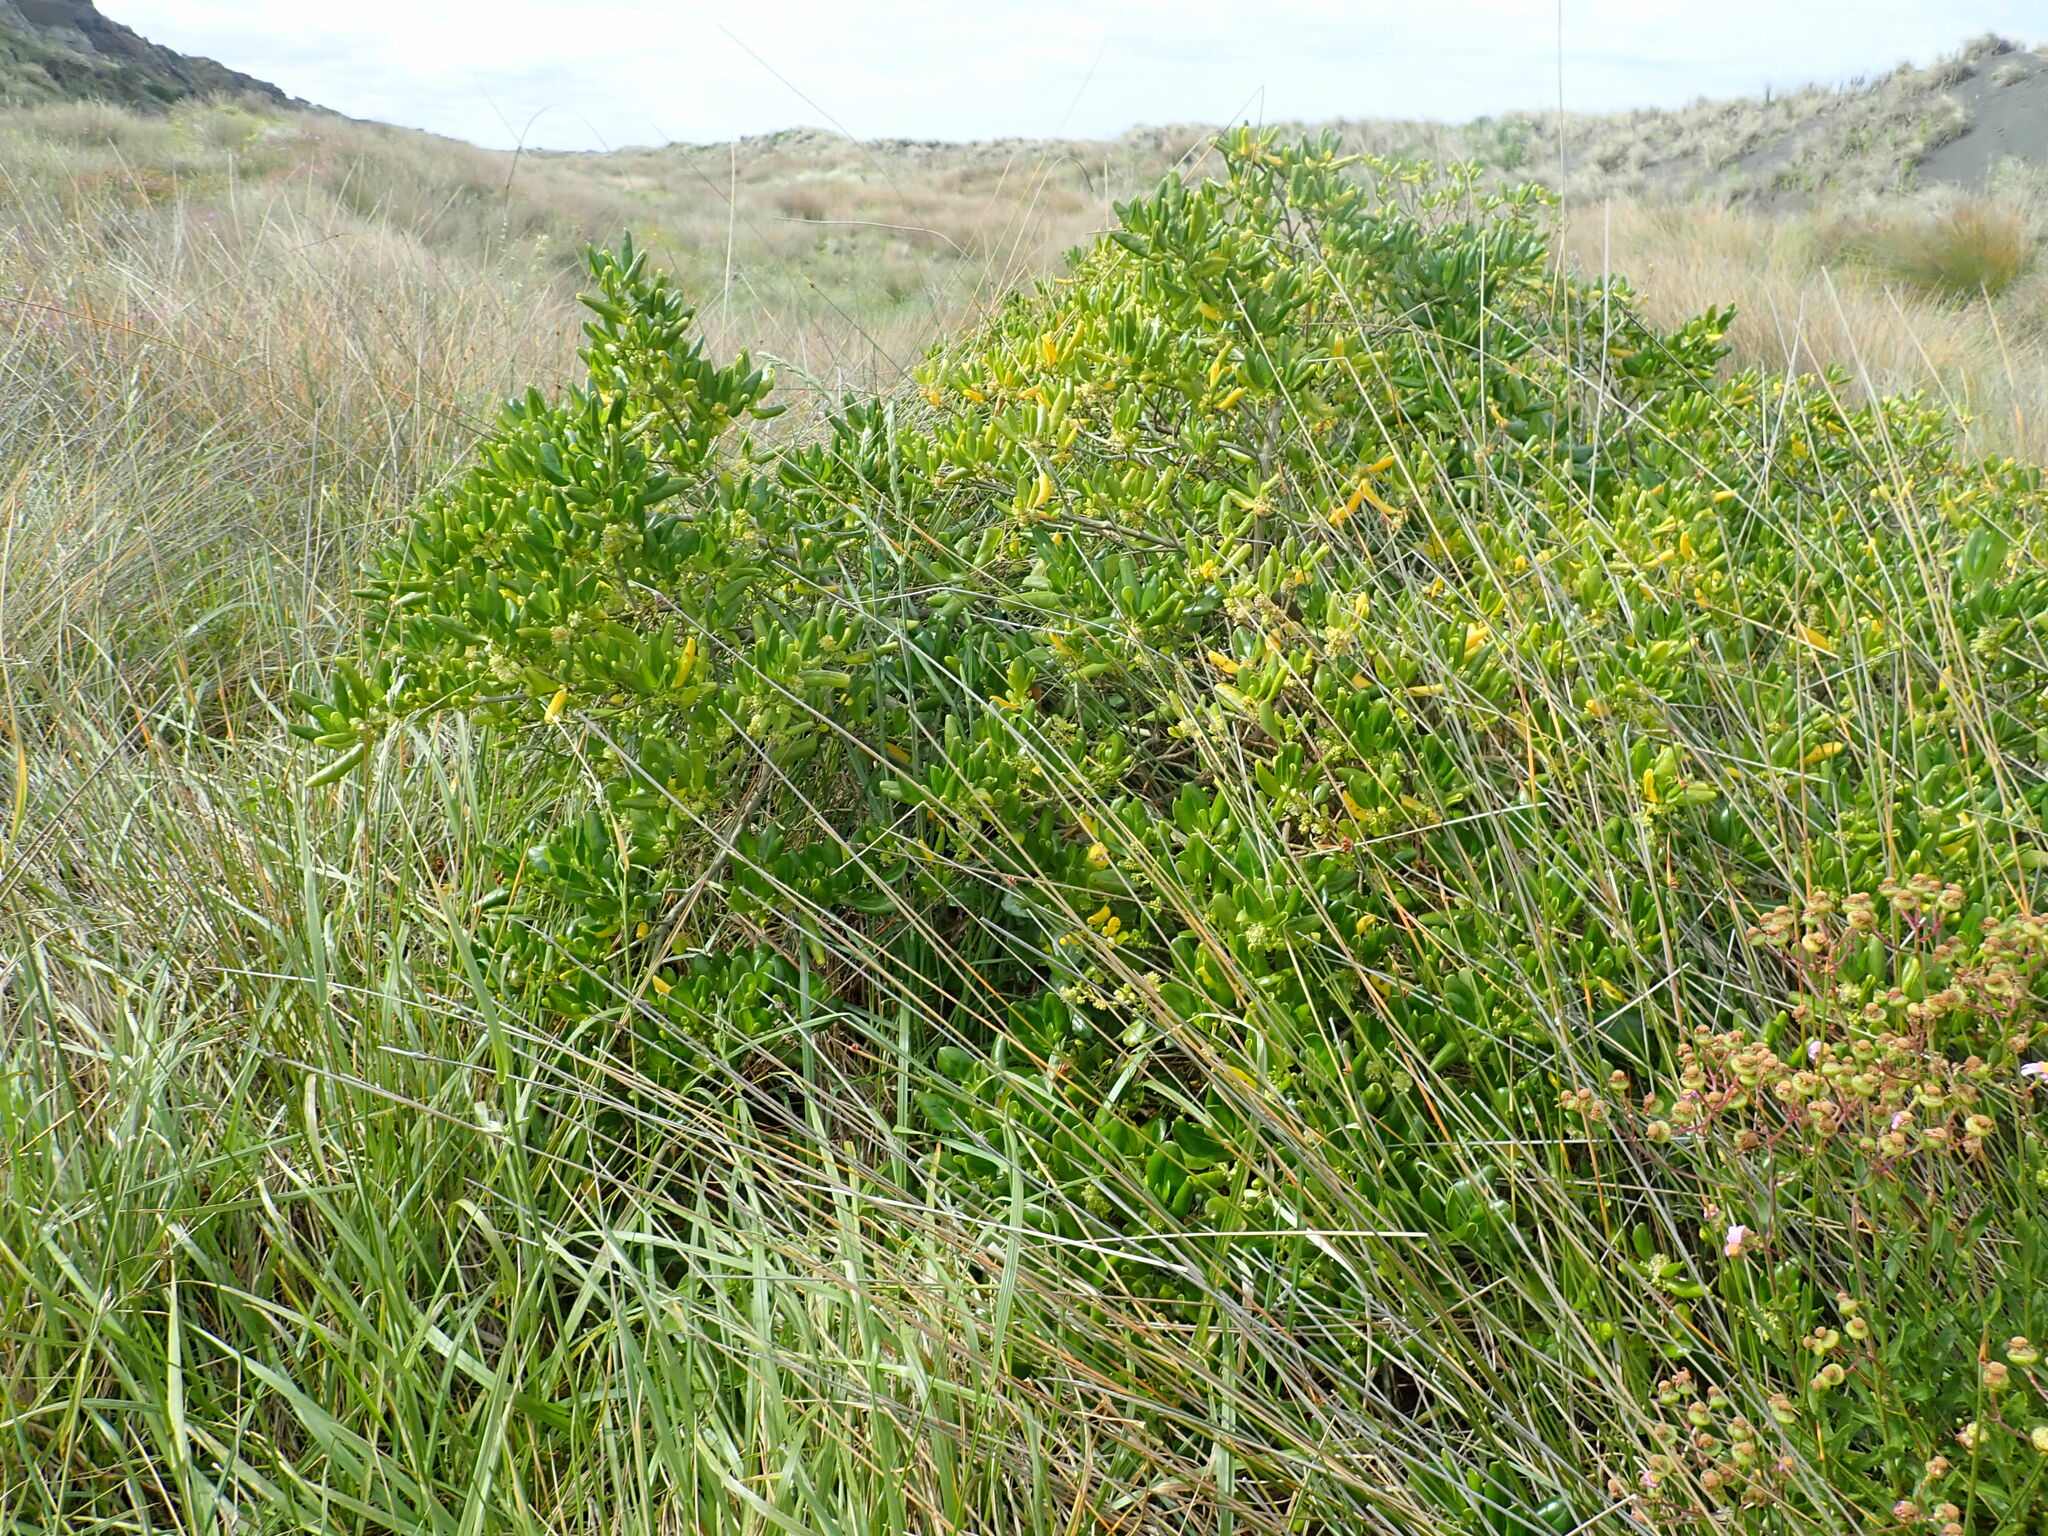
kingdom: Plantae
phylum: Tracheophyta
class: Magnoliopsida
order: Gentianales
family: Rubiaceae
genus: Coprosma
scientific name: Coprosma repens
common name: Tree bedstraw
